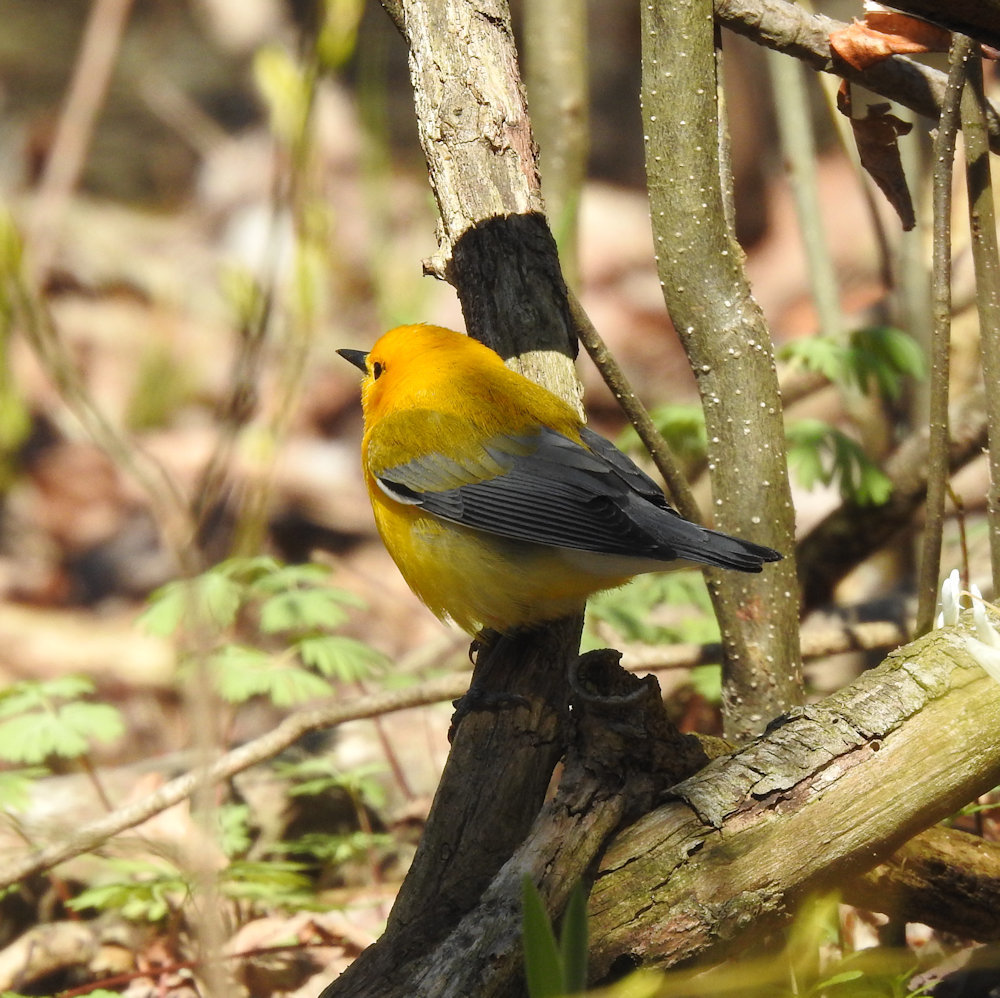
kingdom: Animalia
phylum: Chordata
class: Aves
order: Passeriformes
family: Parulidae
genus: Protonotaria
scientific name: Protonotaria citrea
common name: Prothonotary warbler
